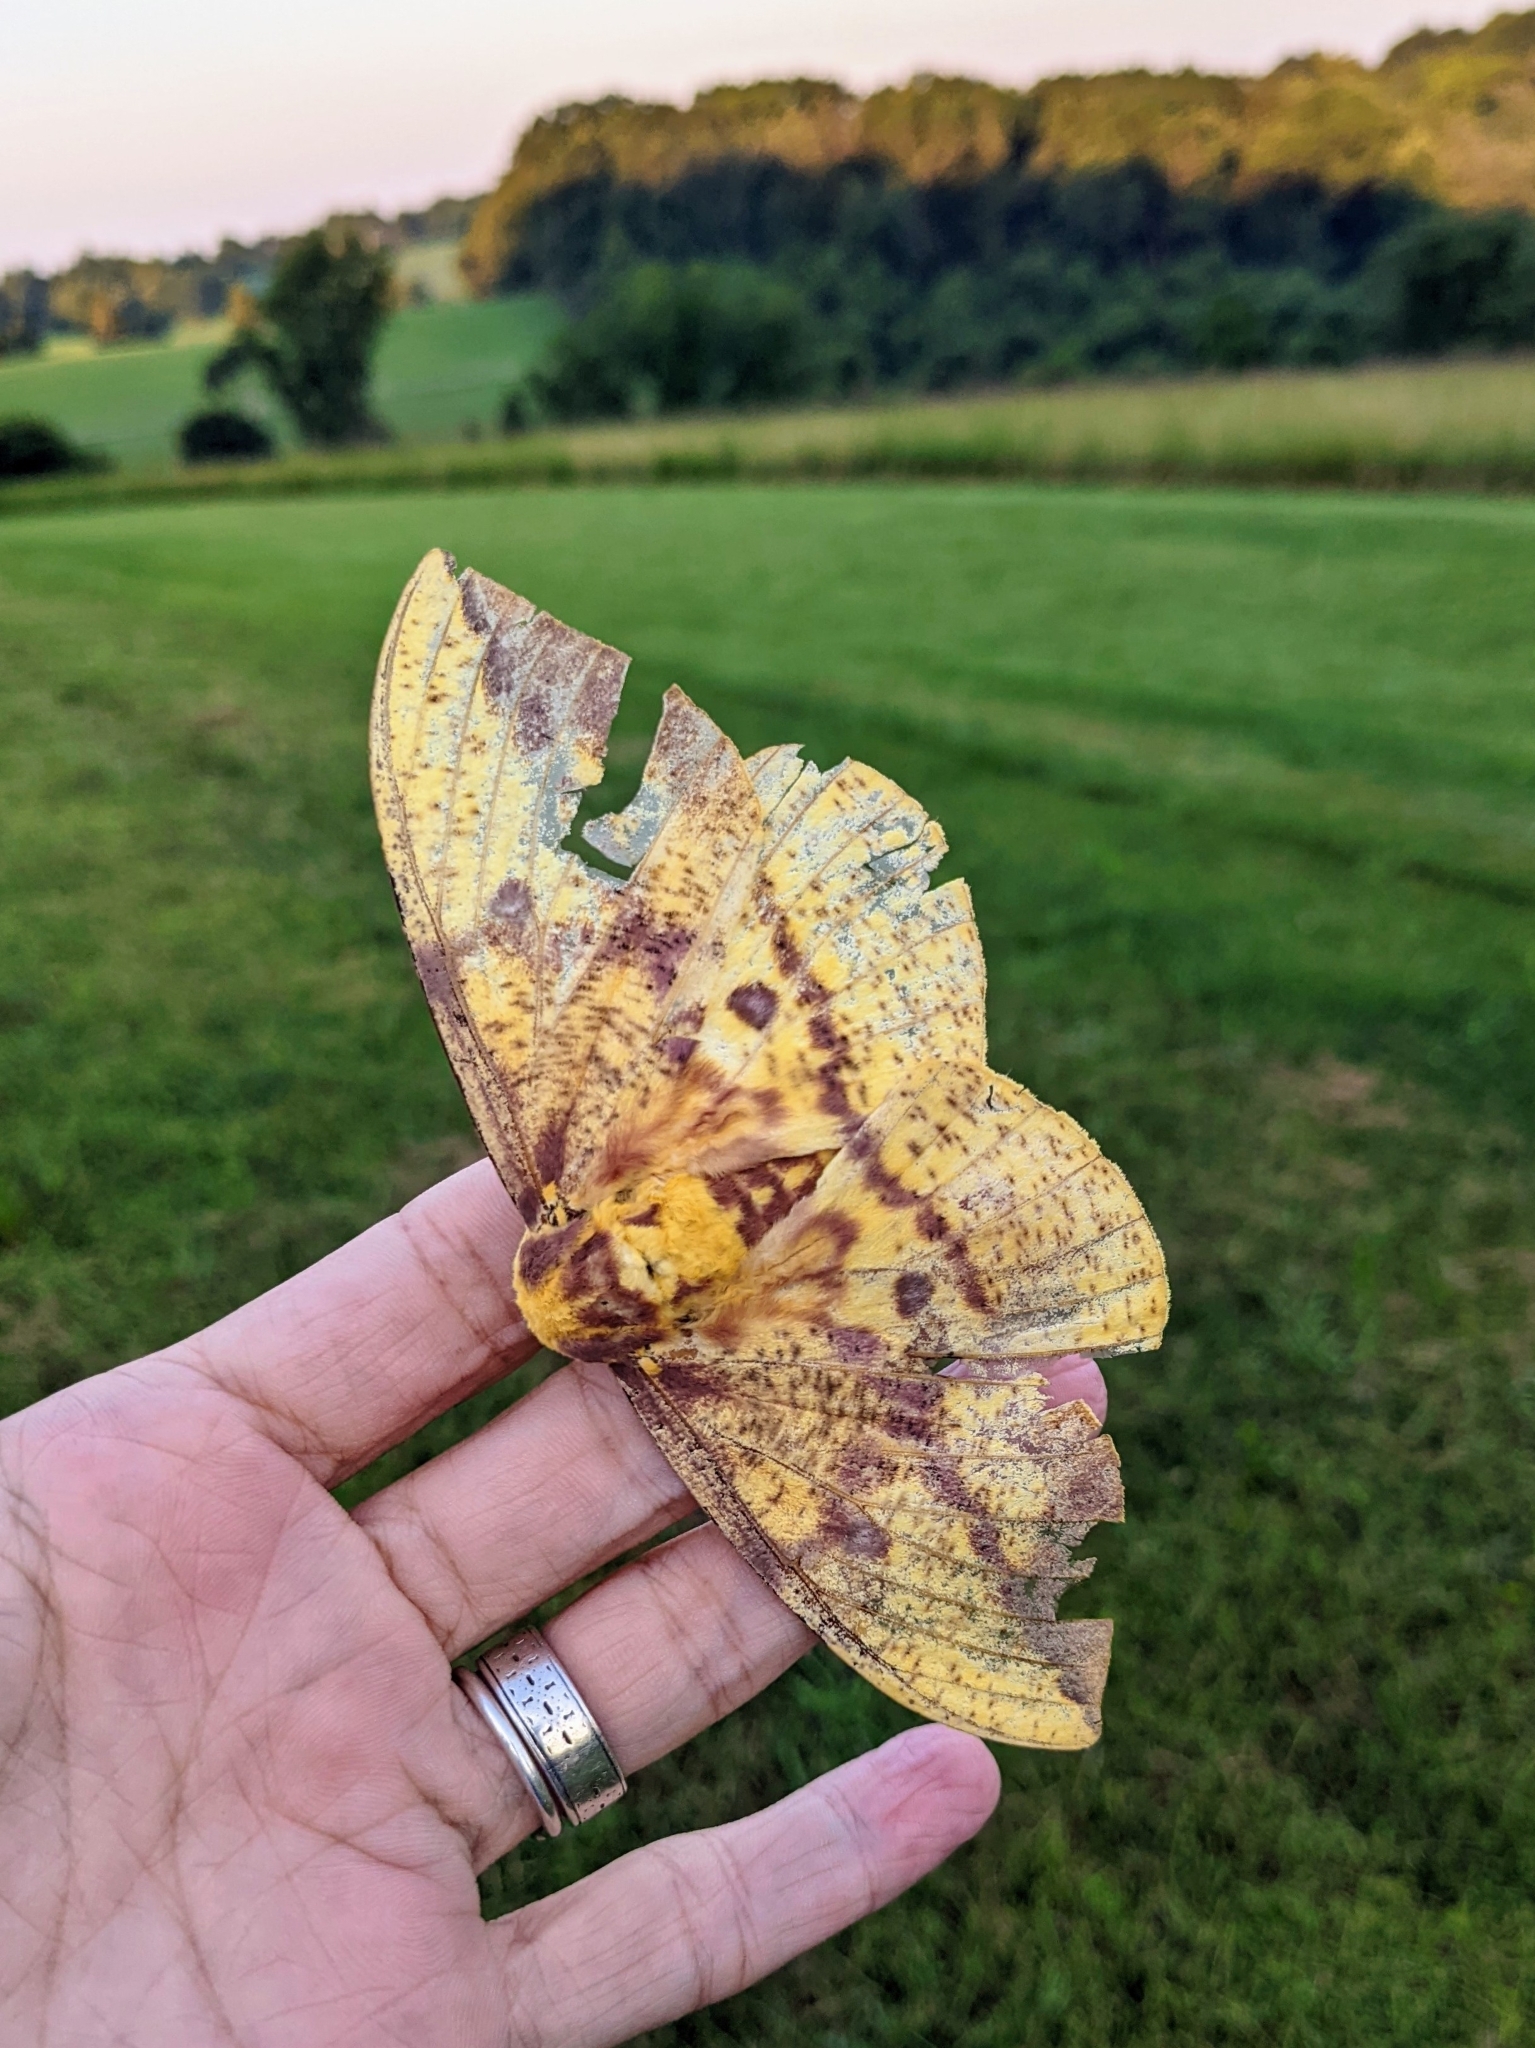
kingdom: Animalia
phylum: Arthropoda
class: Insecta
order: Lepidoptera
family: Saturniidae
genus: Eacles
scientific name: Eacles imperialis
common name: Imperial moth
